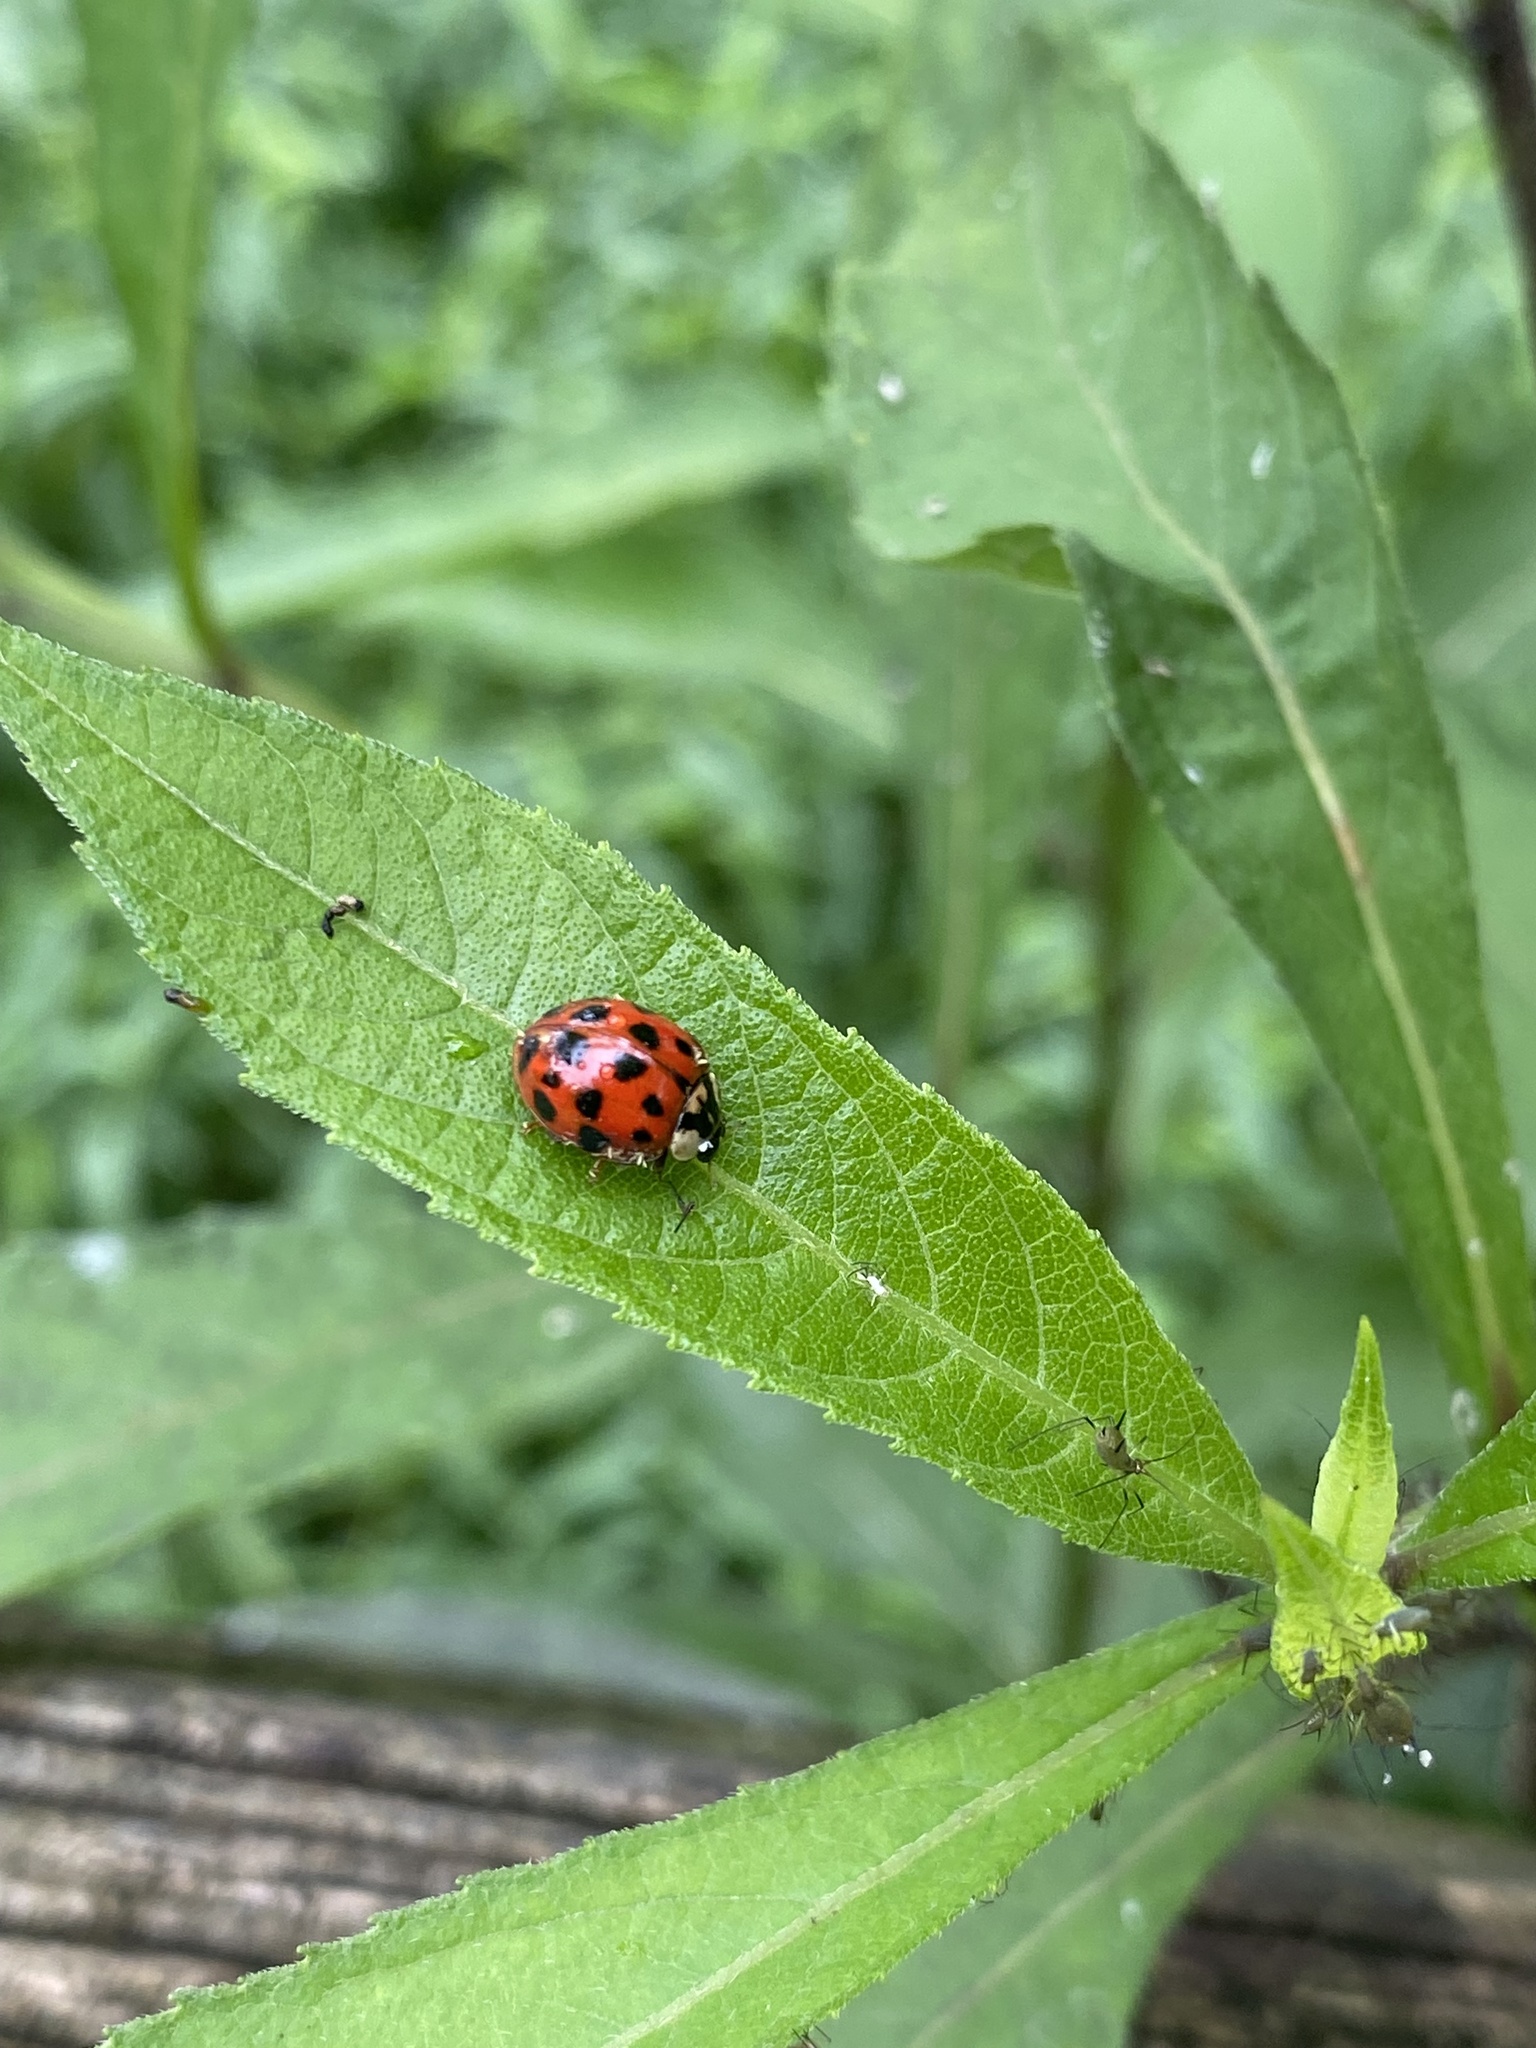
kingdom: Animalia
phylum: Arthropoda
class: Insecta
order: Coleoptera
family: Coccinellidae
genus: Harmonia
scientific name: Harmonia axyridis
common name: Harlequin ladybird
